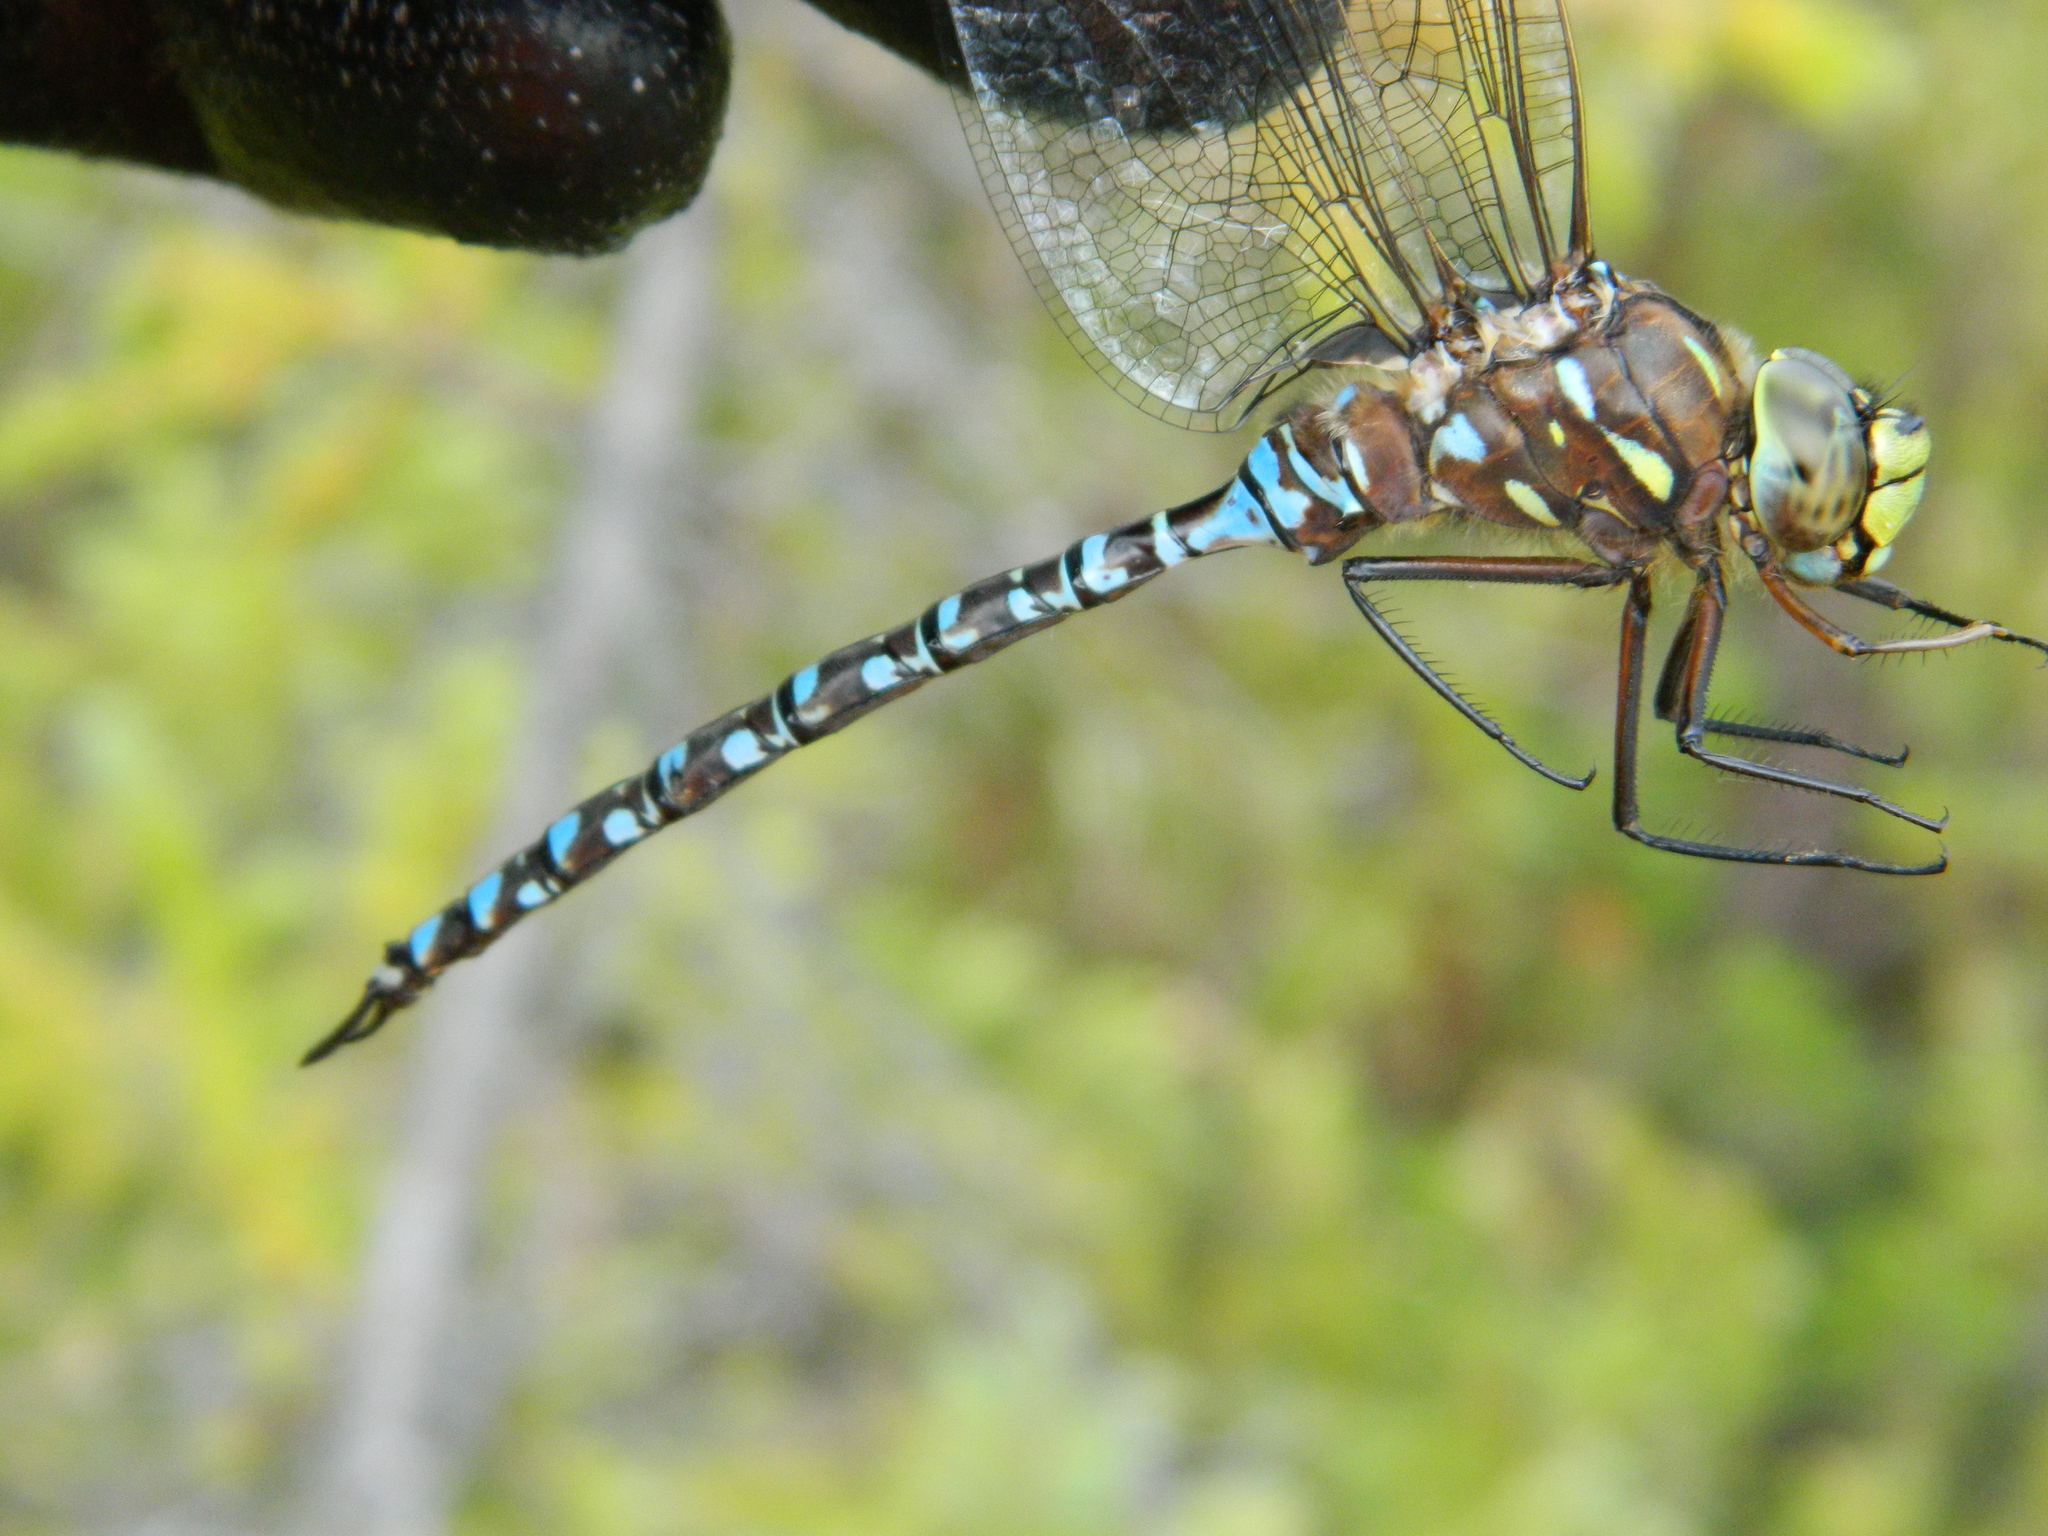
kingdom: Animalia
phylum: Arthropoda
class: Insecta
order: Odonata
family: Aeshnidae
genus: Aeshna
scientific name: Aeshna interrupta
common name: Variable darner
